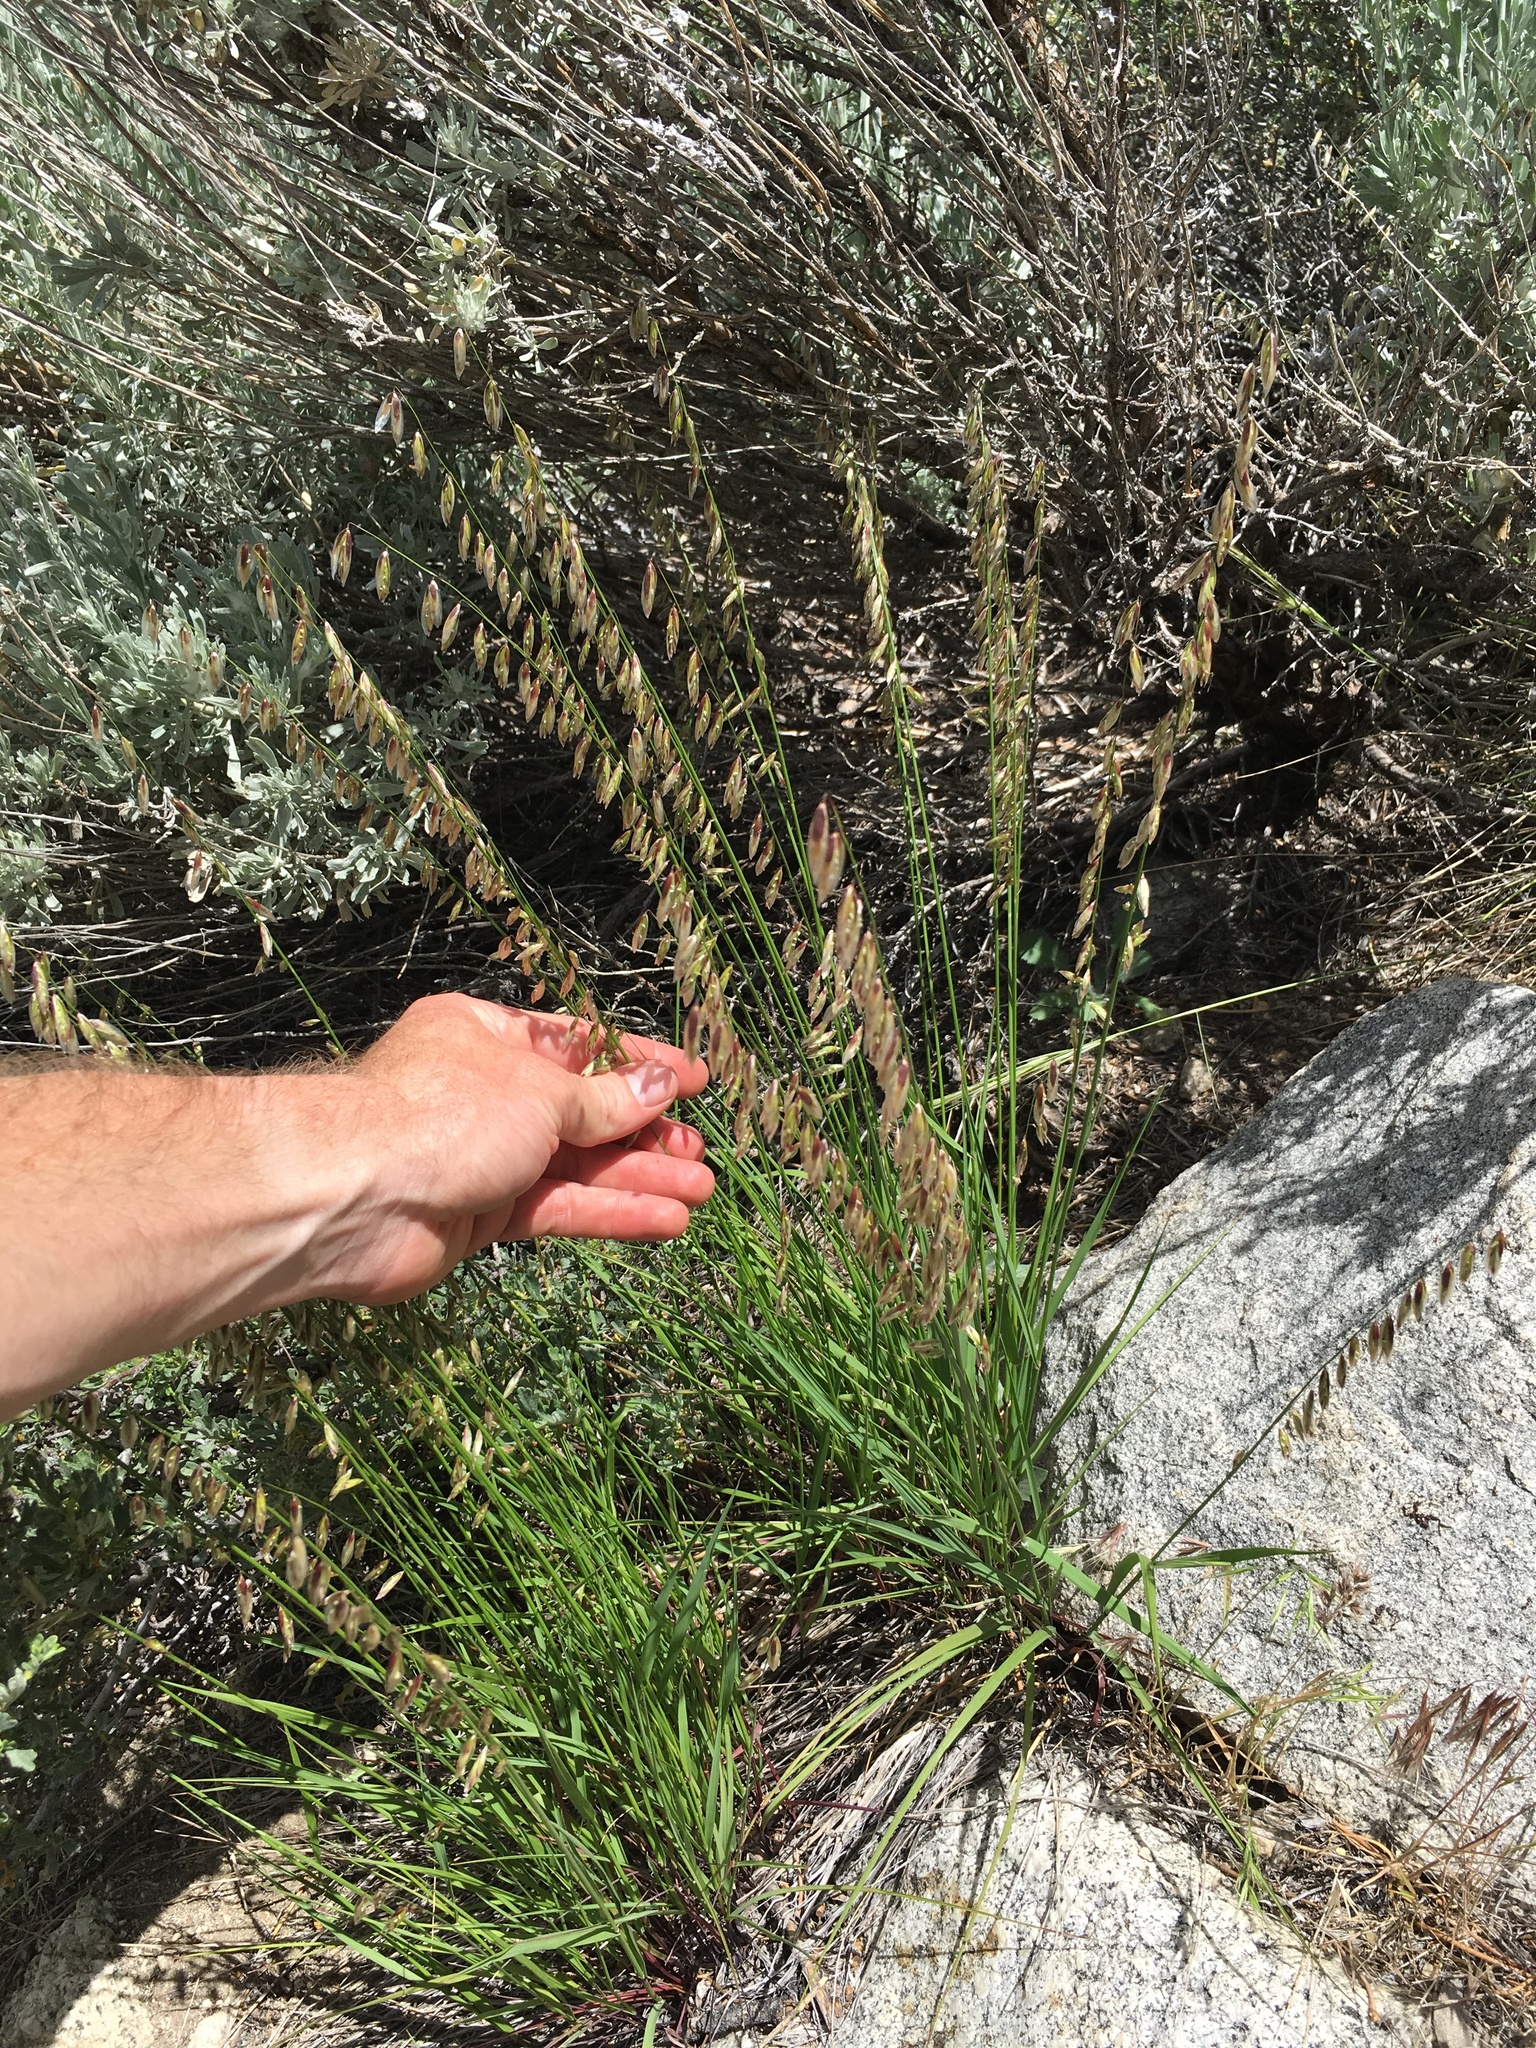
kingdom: Plantae
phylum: Tracheophyta
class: Liliopsida
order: Poales
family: Poaceae
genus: Melica
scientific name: Melica stricta
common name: Rock melic
